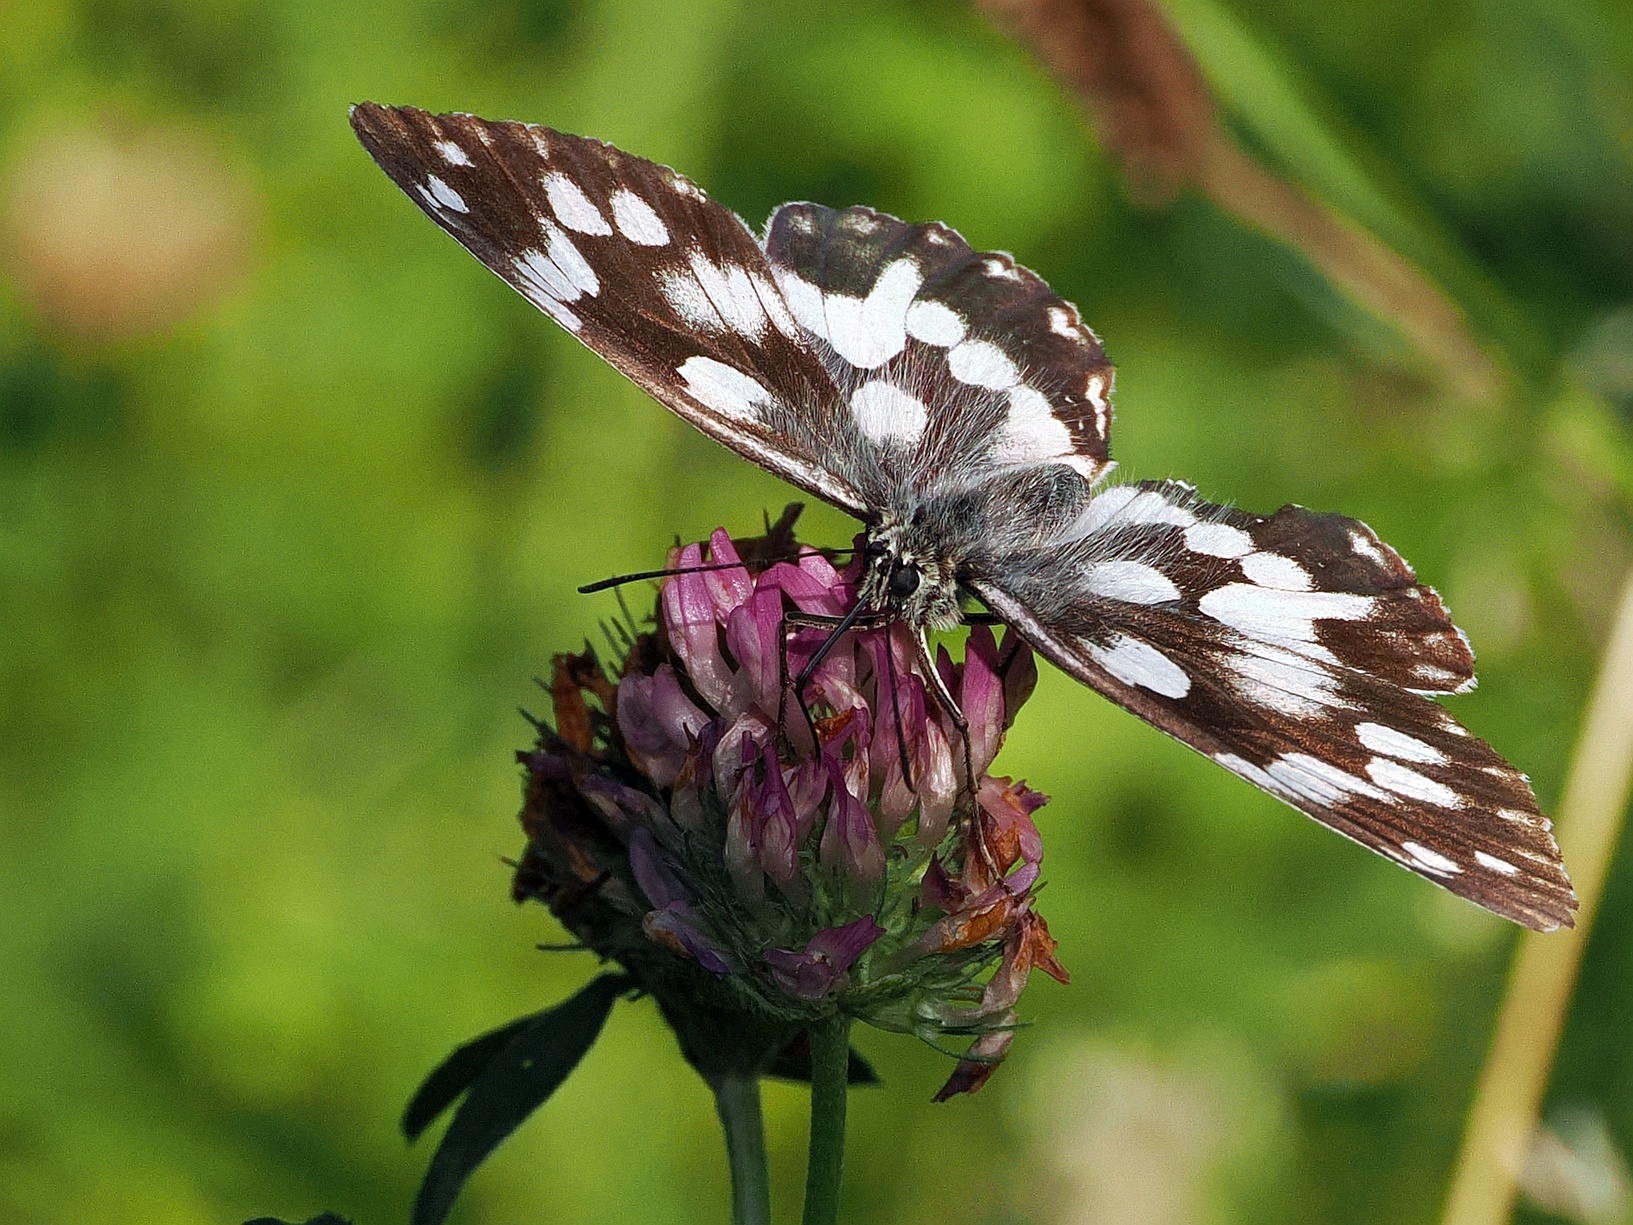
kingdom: Animalia
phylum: Arthropoda
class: Insecta
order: Lepidoptera
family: Nymphalidae
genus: Melanargia
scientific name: Melanargia galathea
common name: Marbled white
